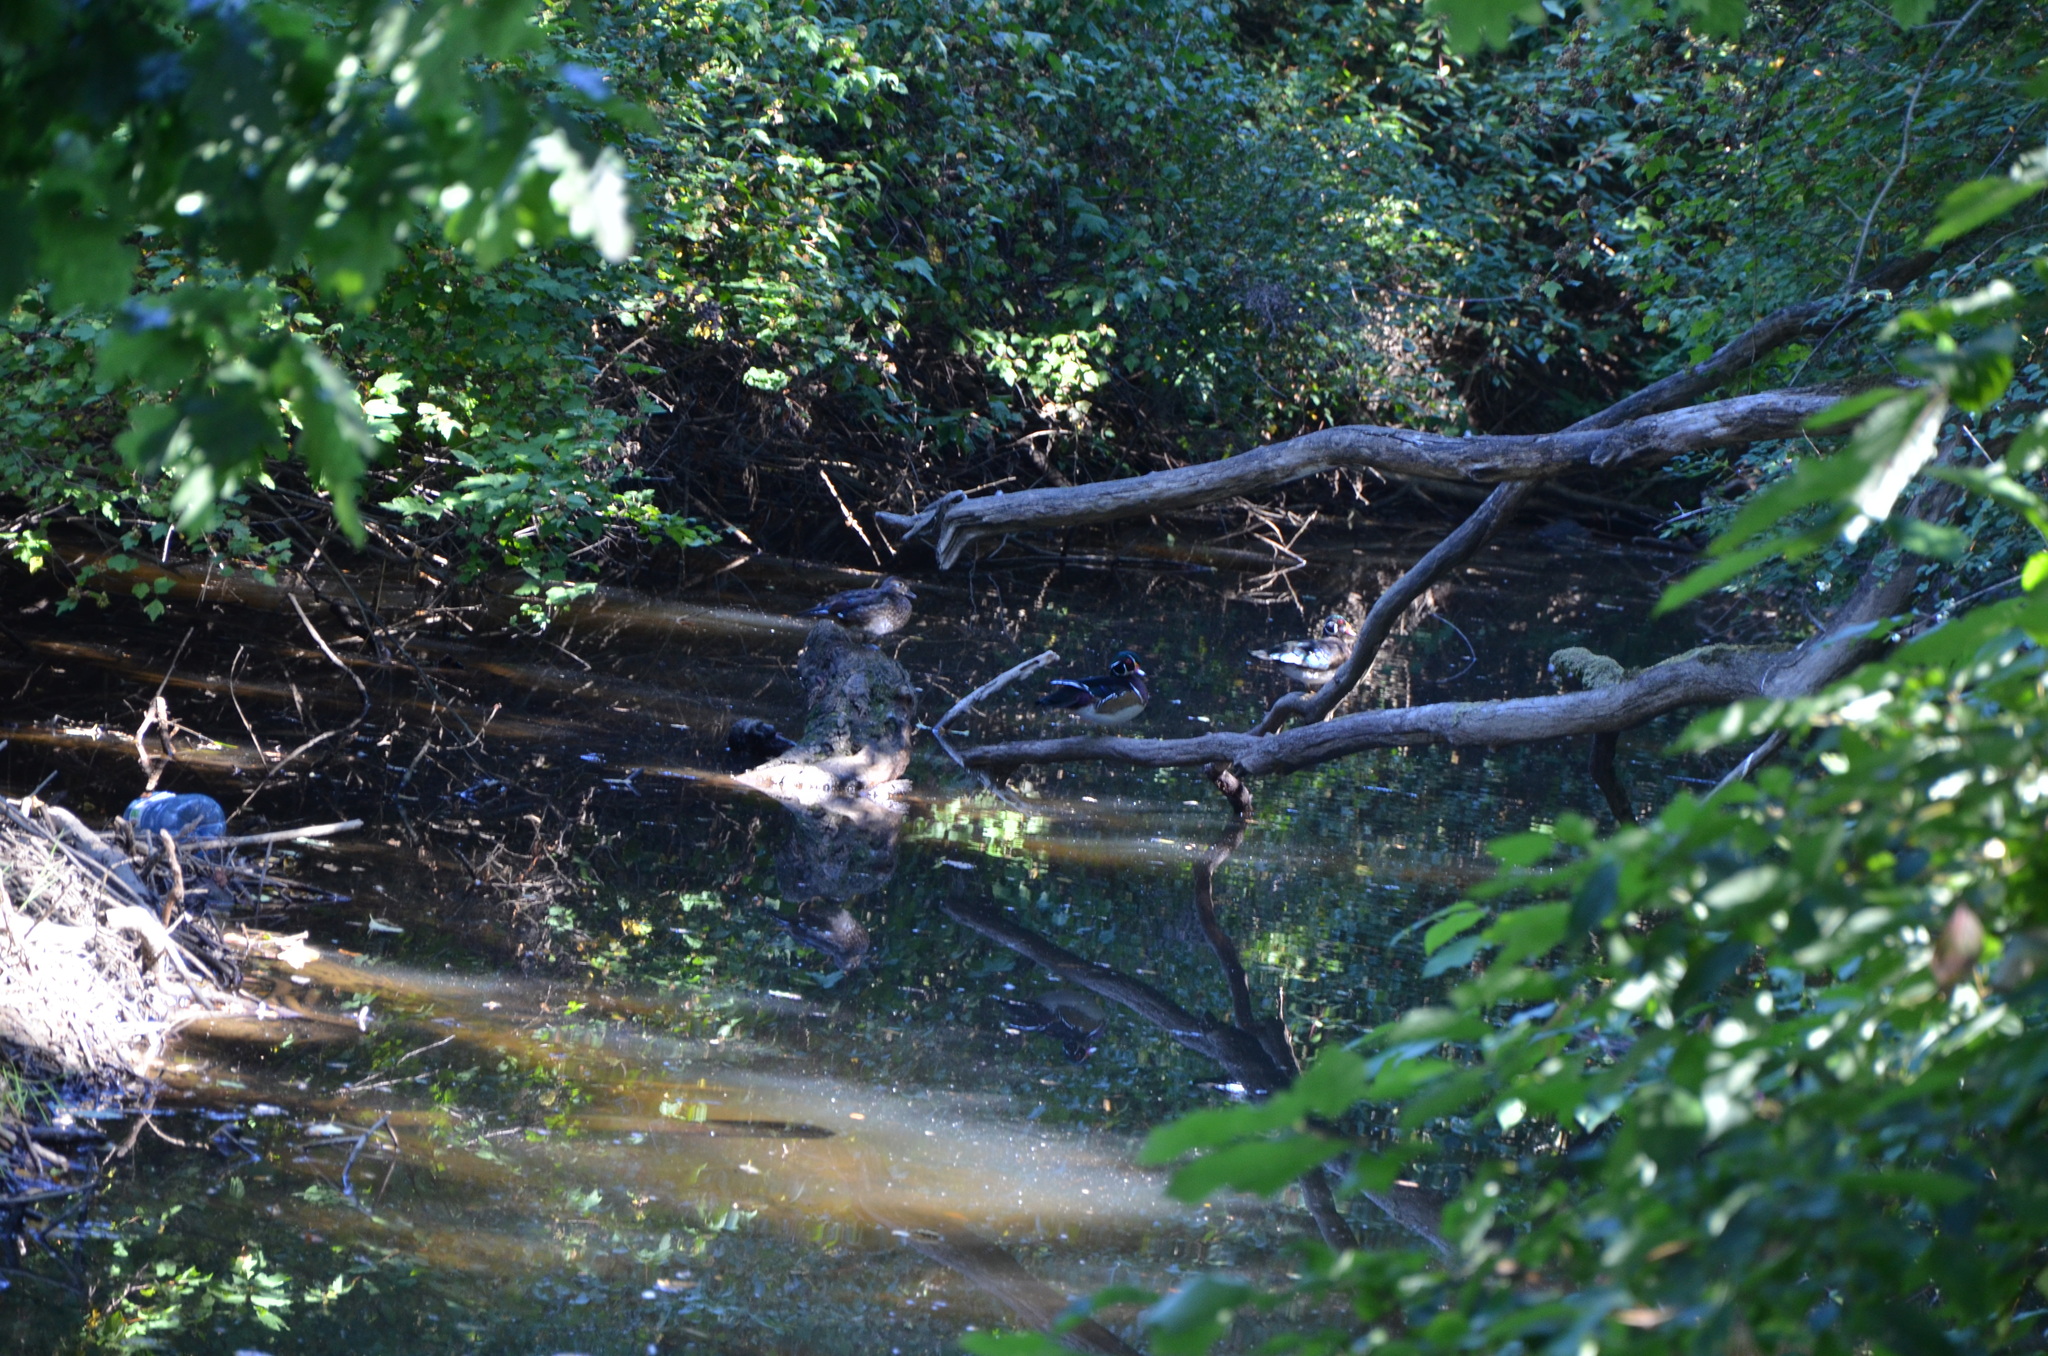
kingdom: Animalia
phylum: Chordata
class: Aves
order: Anseriformes
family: Anatidae
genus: Aix
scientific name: Aix sponsa
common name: Wood duck
